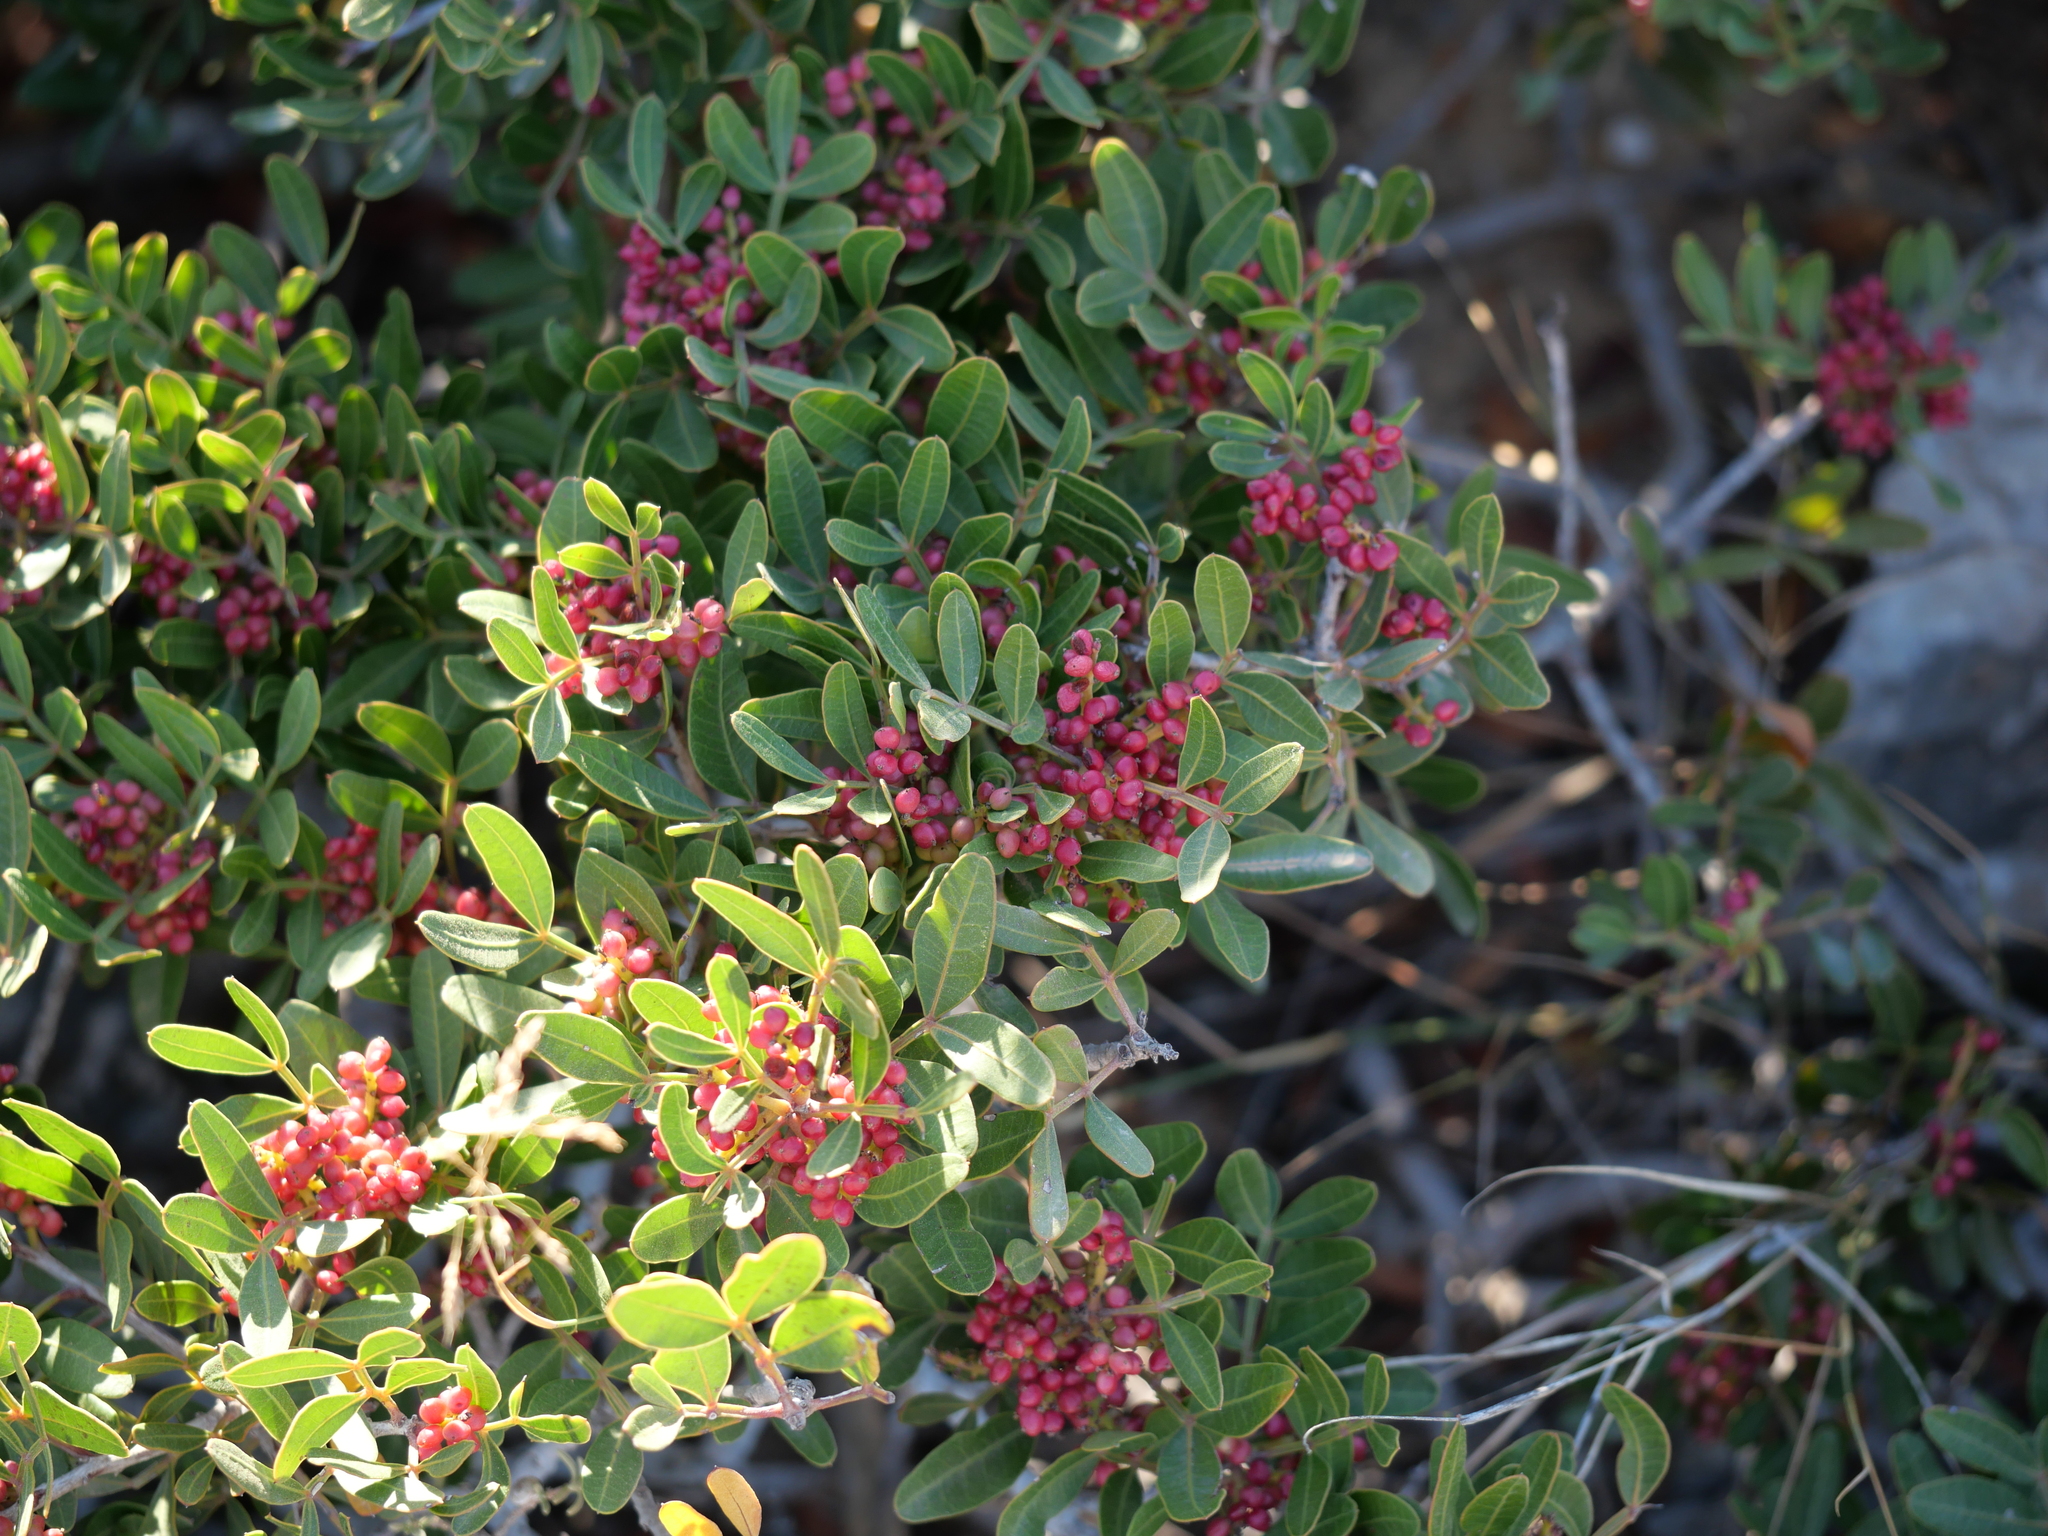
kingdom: Plantae
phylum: Tracheophyta
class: Magnoliopsida
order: Sapindales
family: Anacardiaceae
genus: Pistacia
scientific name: Pistacia lentiscus
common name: Lentisk
